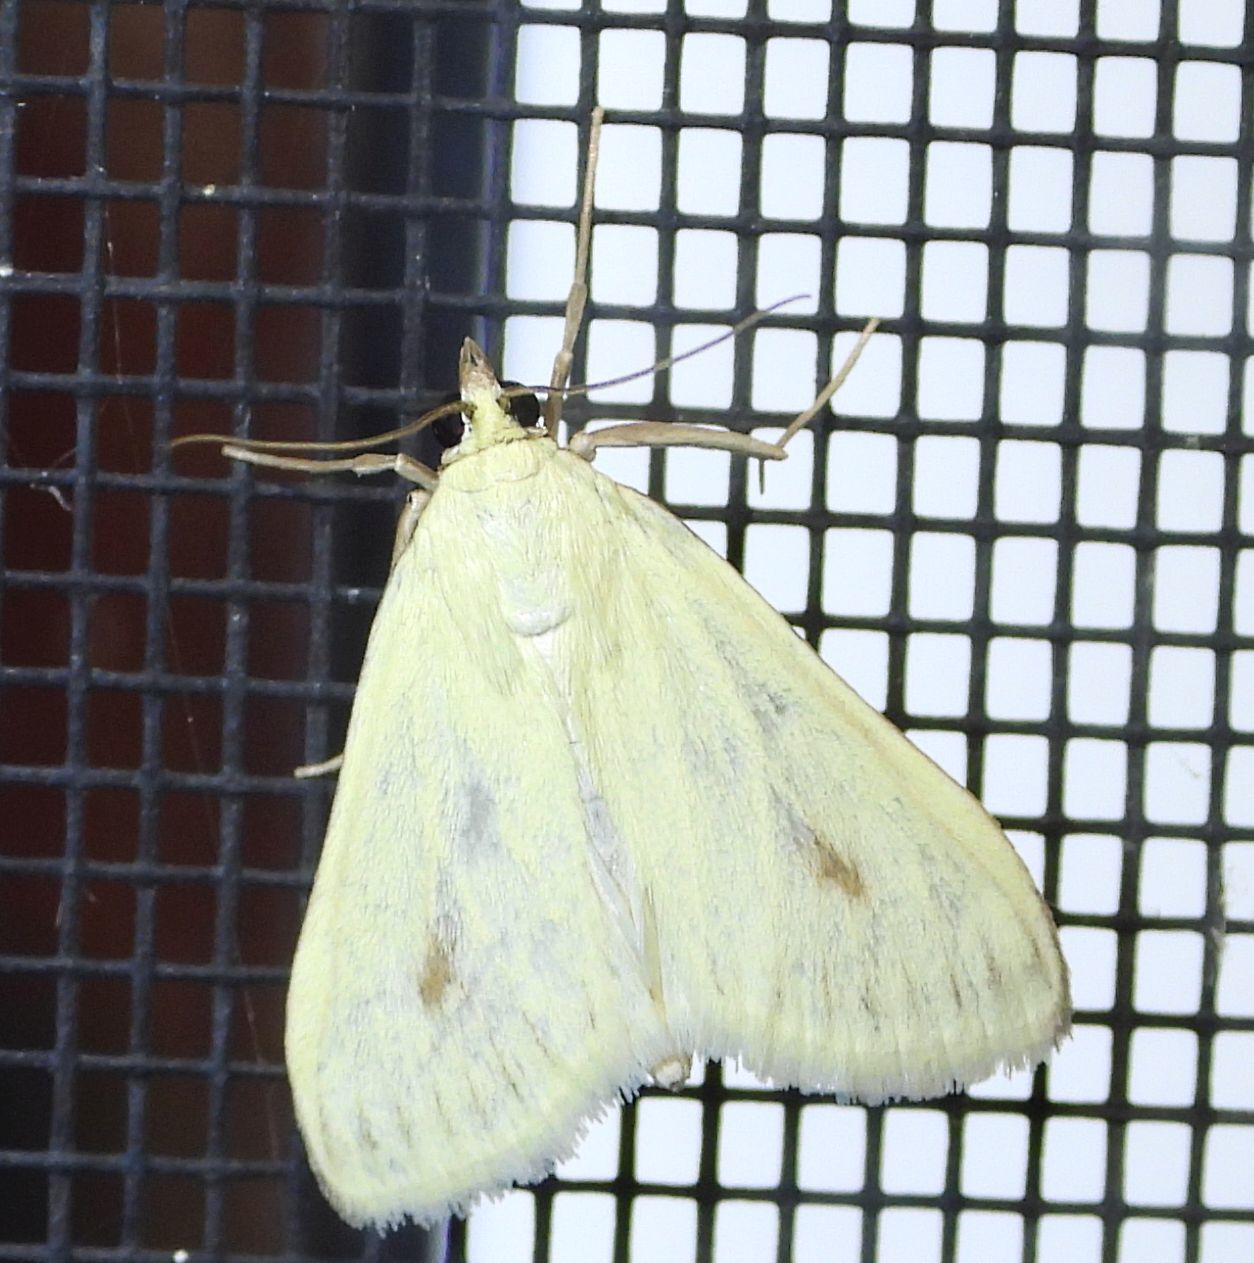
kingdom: Animalia
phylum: Arthropoda
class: Insecta
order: Lepidoptera
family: Crambidae
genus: Sitochroa
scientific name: Sitochroa palealis
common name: Greenish-yellow sitochroa moth
